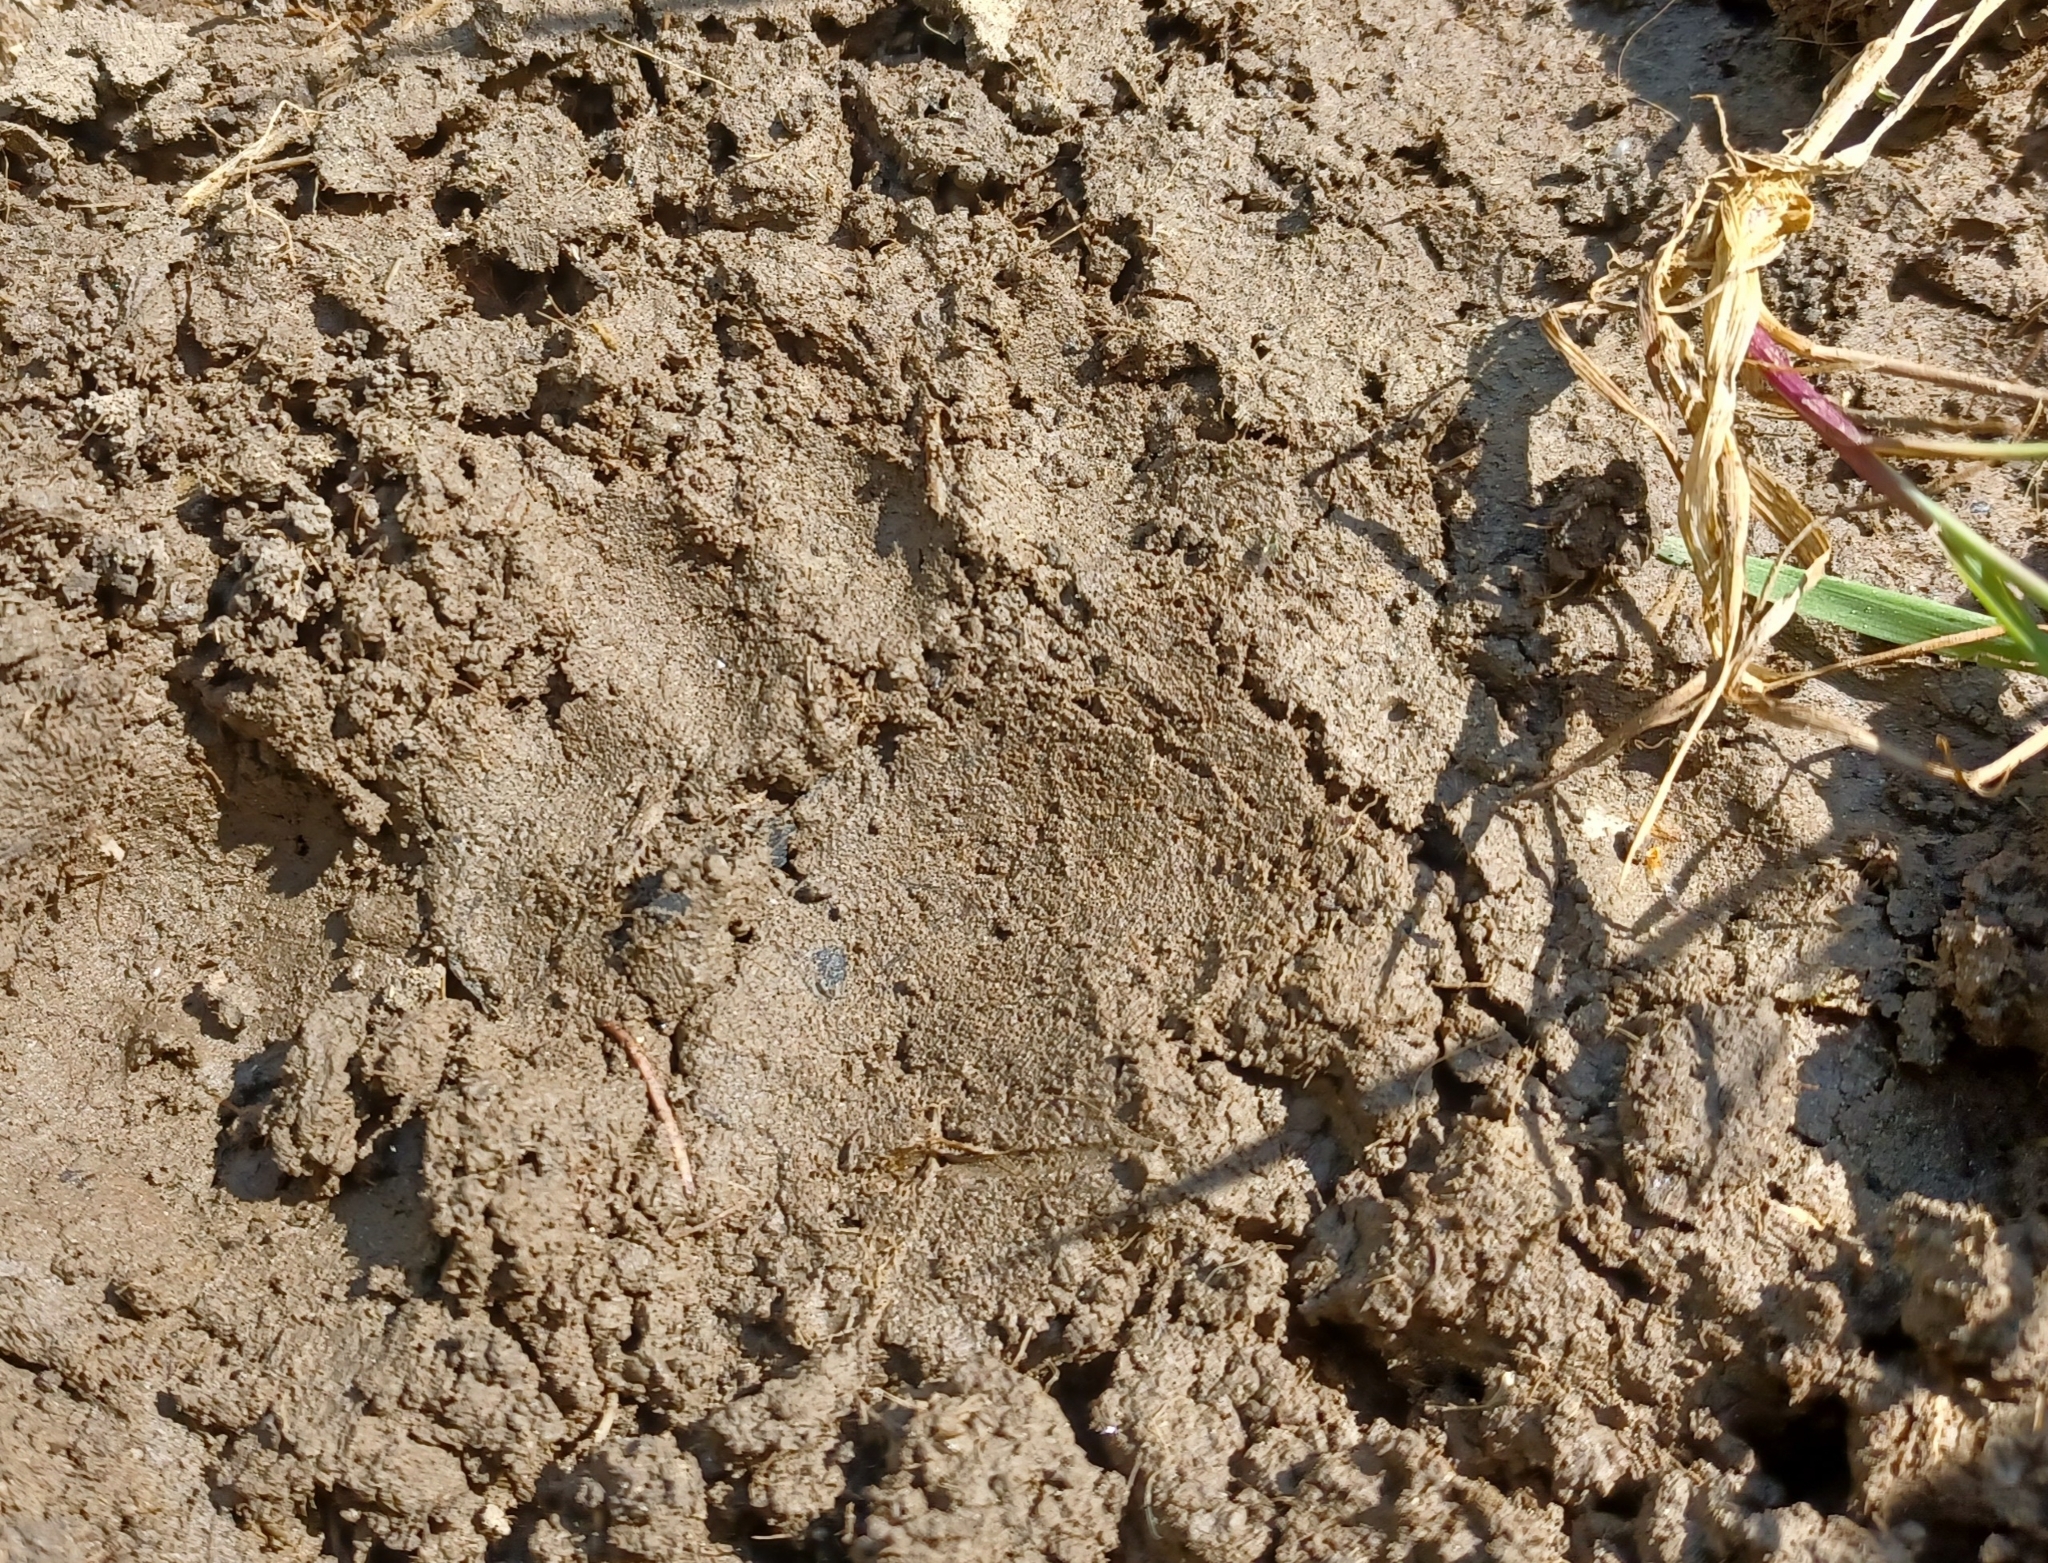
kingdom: Animalia
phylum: Chordata
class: Mammalia
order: Carnivora
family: Mustelidae
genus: Meles
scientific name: Meles meles
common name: Eurasian badger
